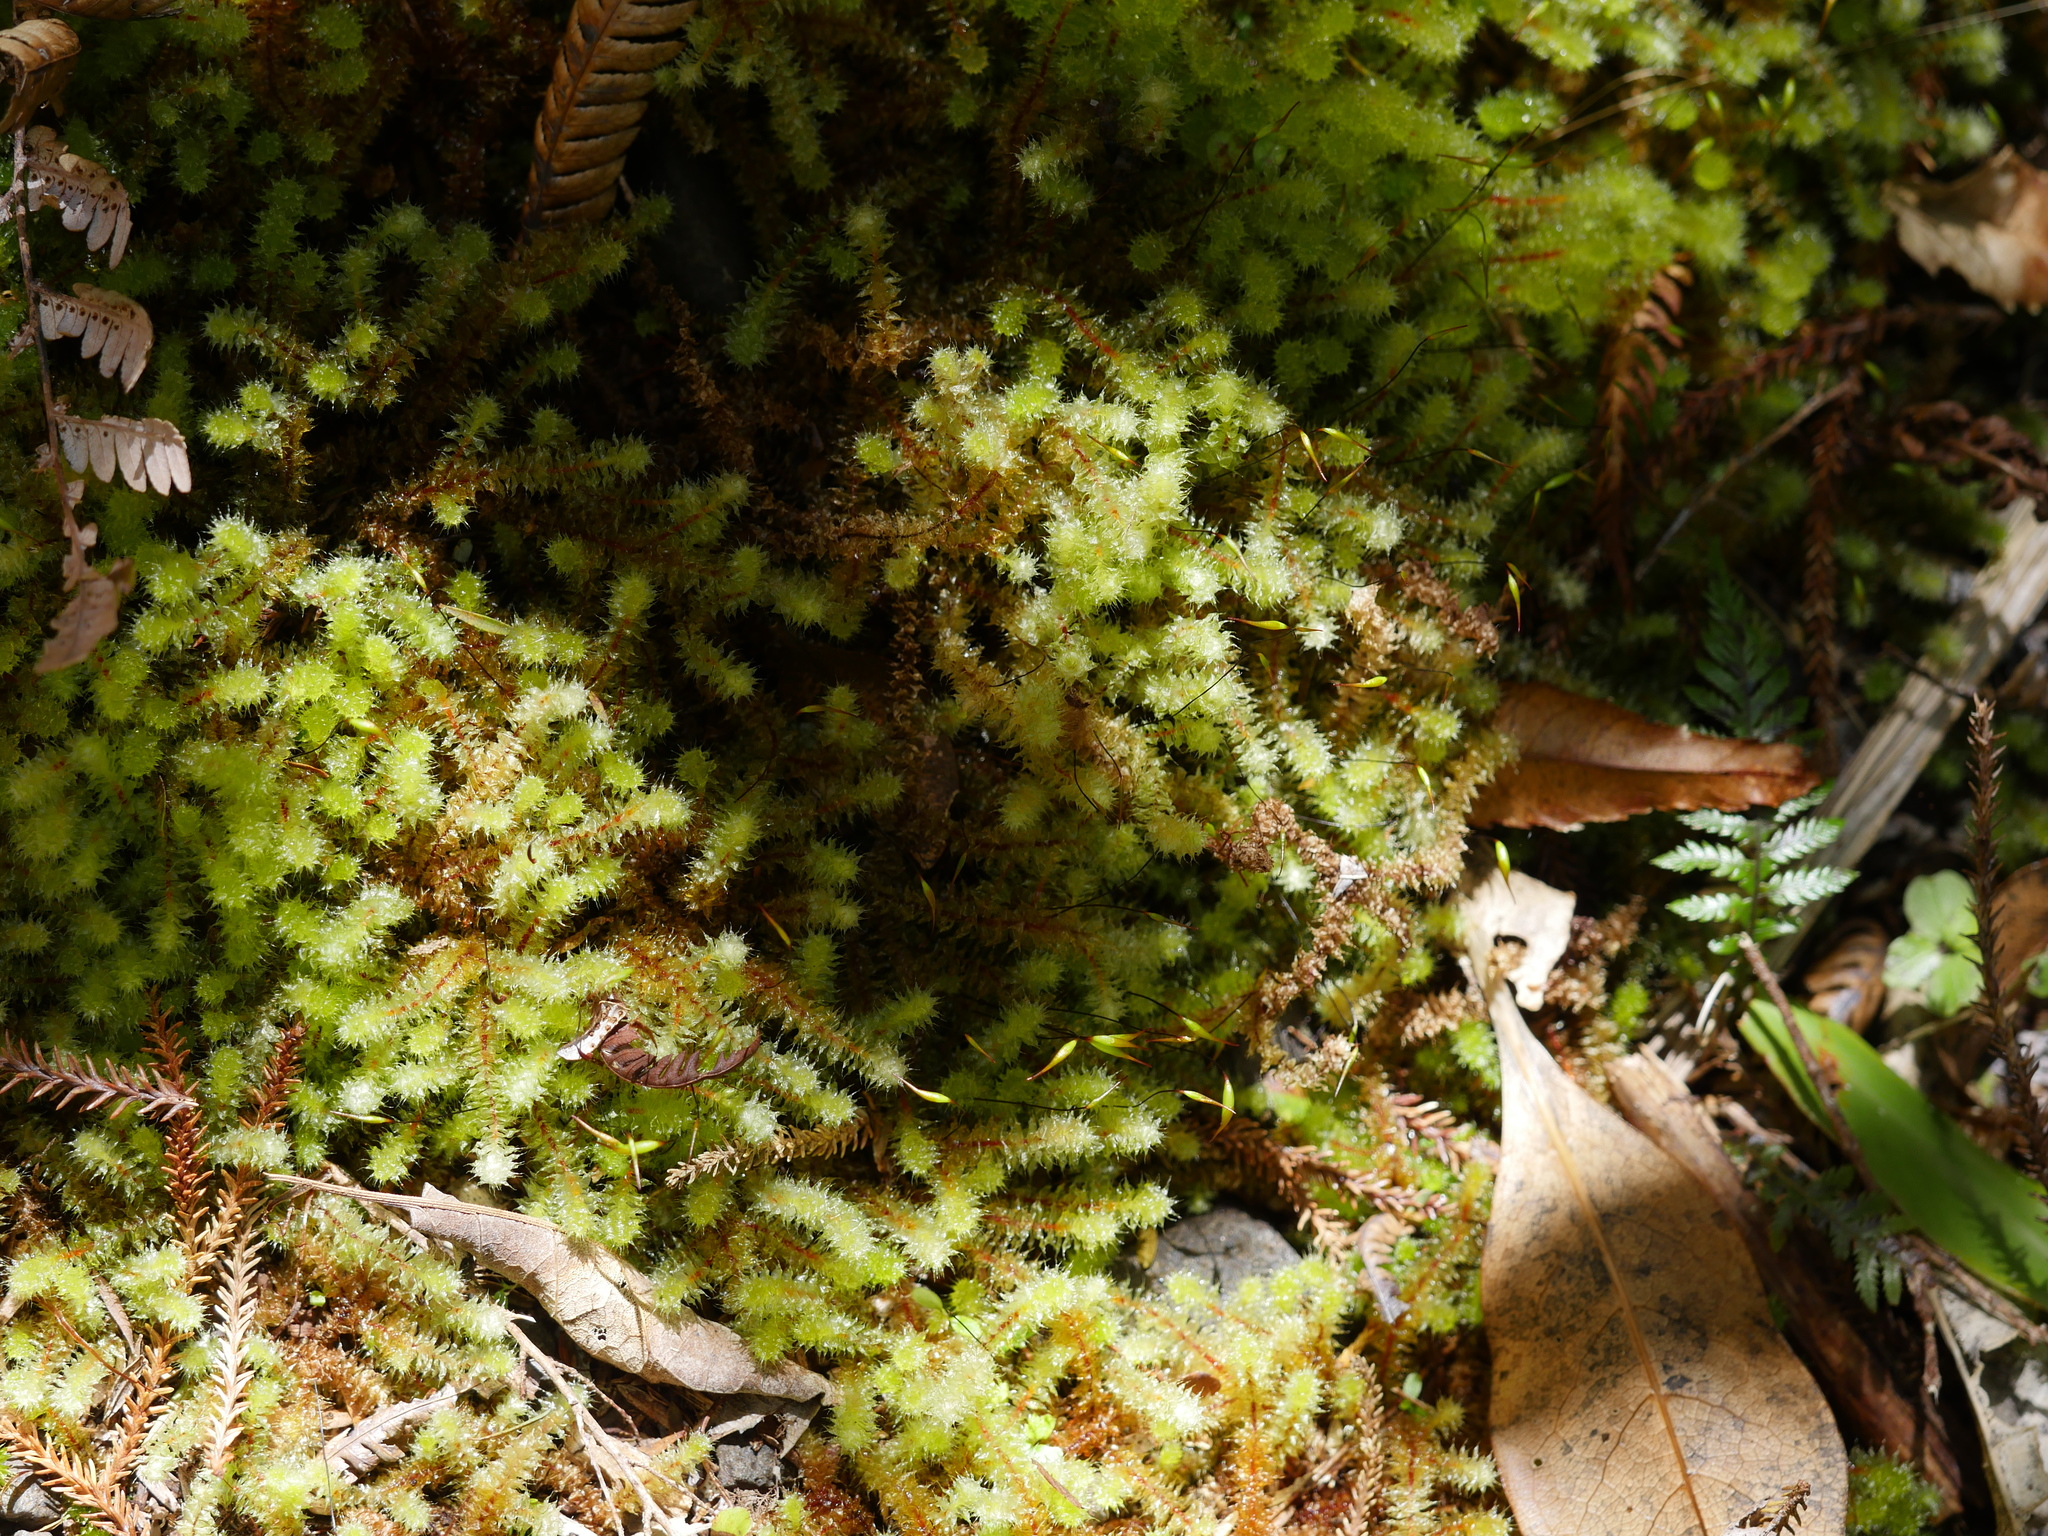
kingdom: Plantae
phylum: Bryophyta
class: Bryopsida
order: Ptychomniales
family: Ptychomniaceae
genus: Ptychomnion
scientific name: Ptychomnion aciculare
